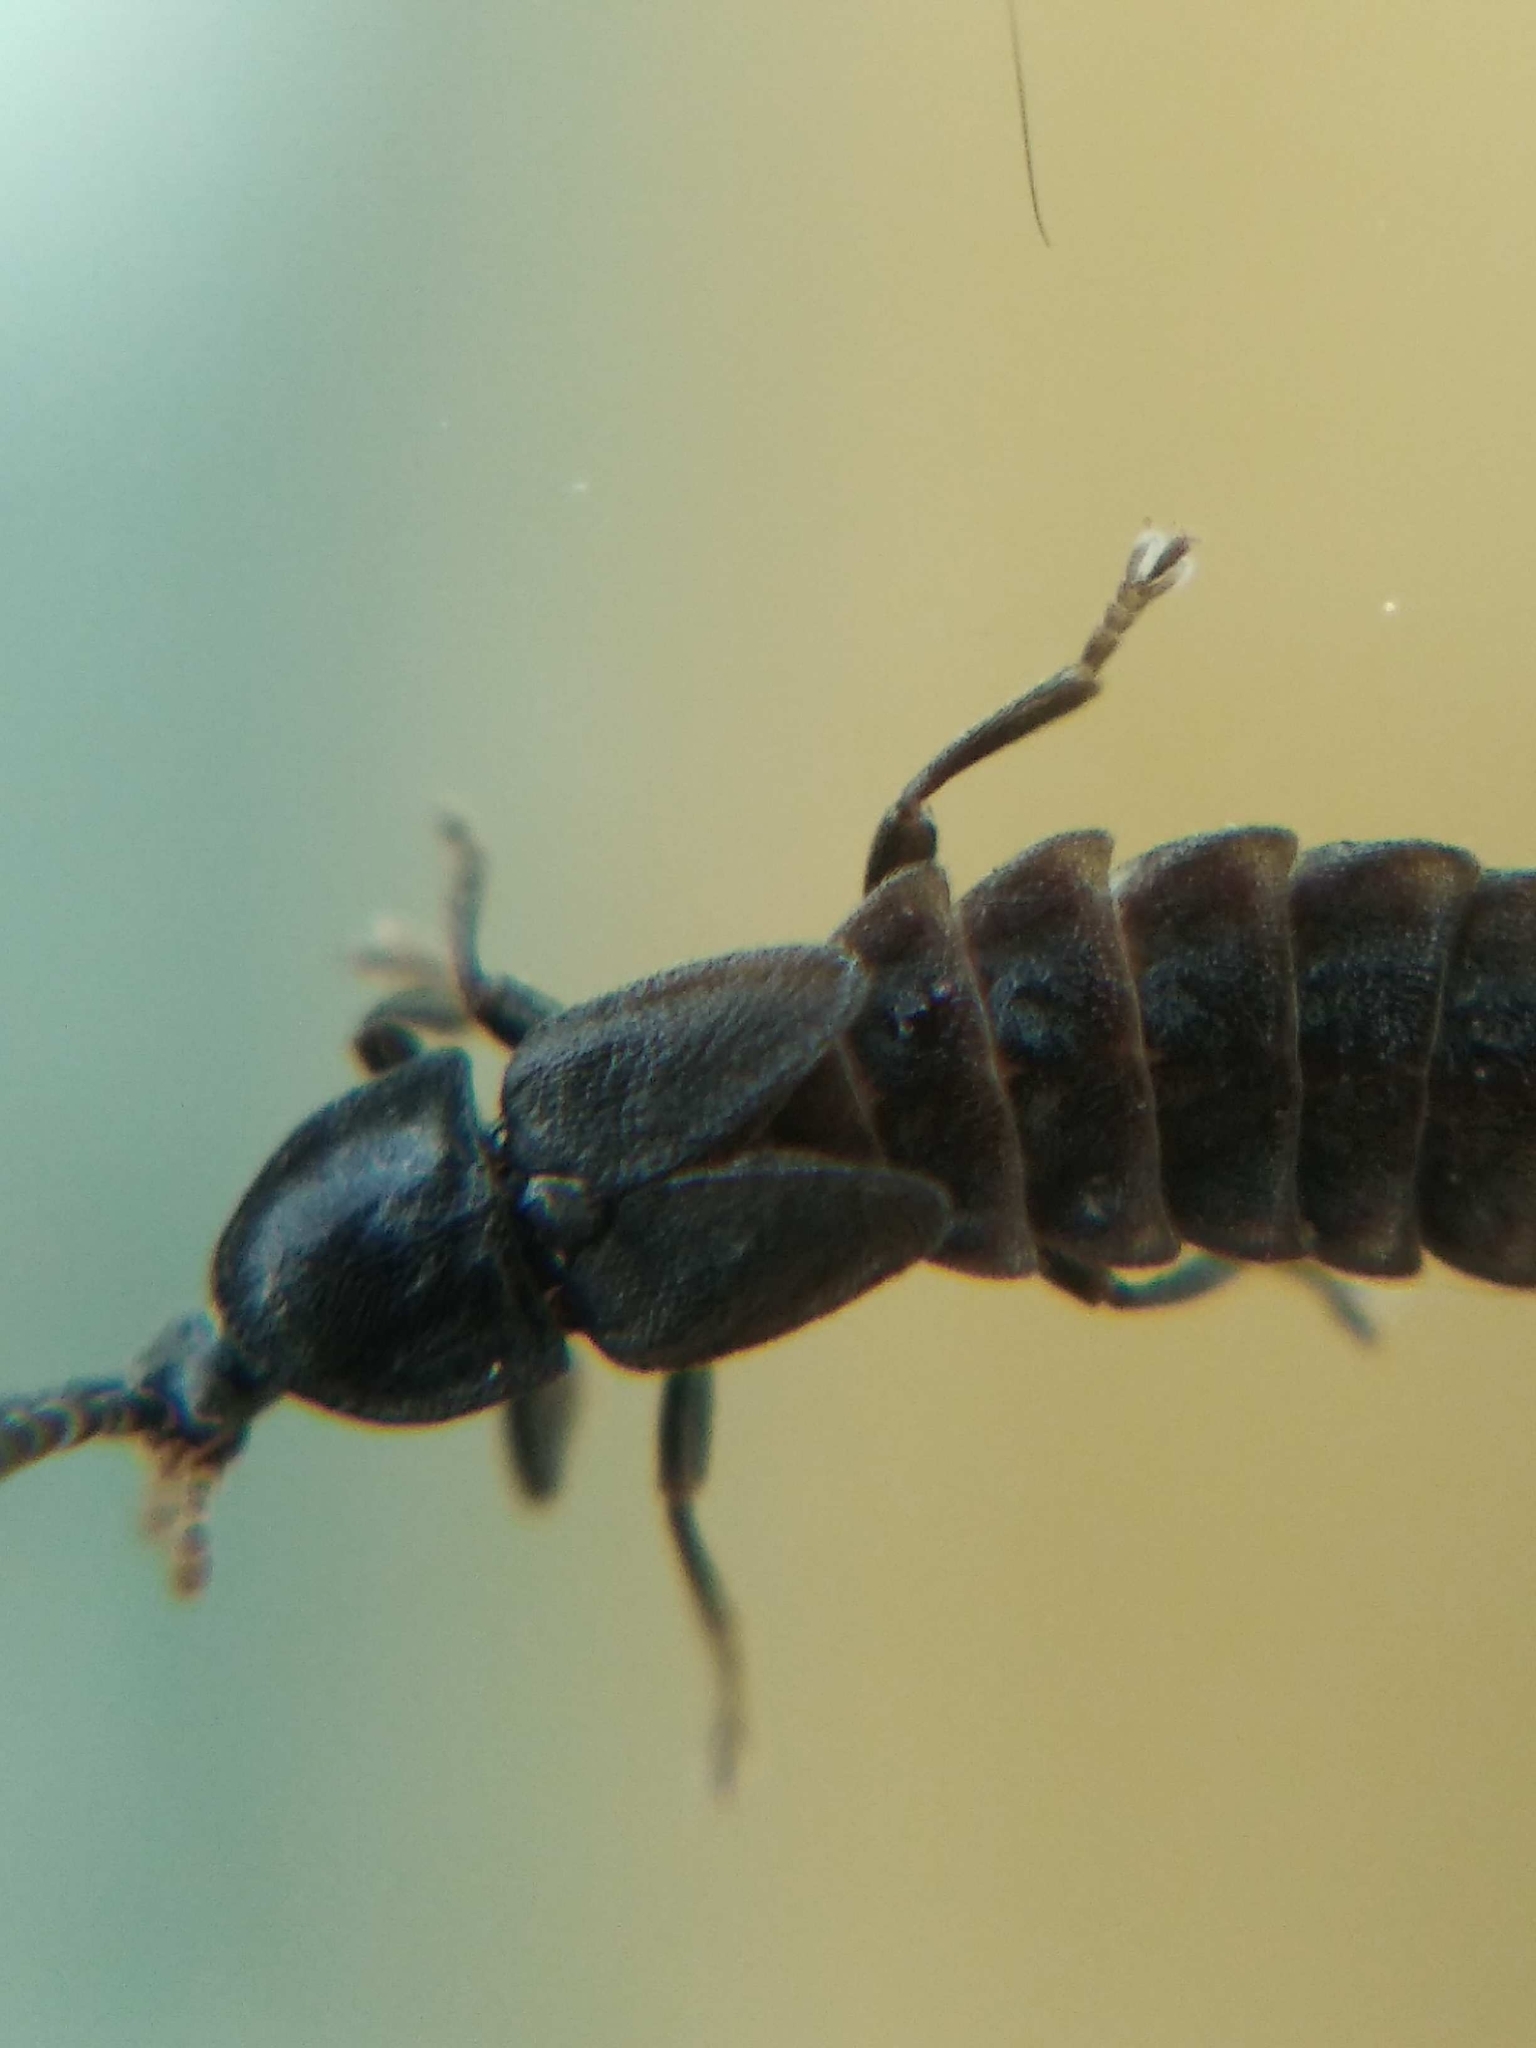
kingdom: Animalia
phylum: Arthropoda
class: Insecta
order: Coleoptera
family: Lampyridae
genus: Phosphaenus
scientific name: Phosphaenus hemipterus
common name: Short-winged firefly
